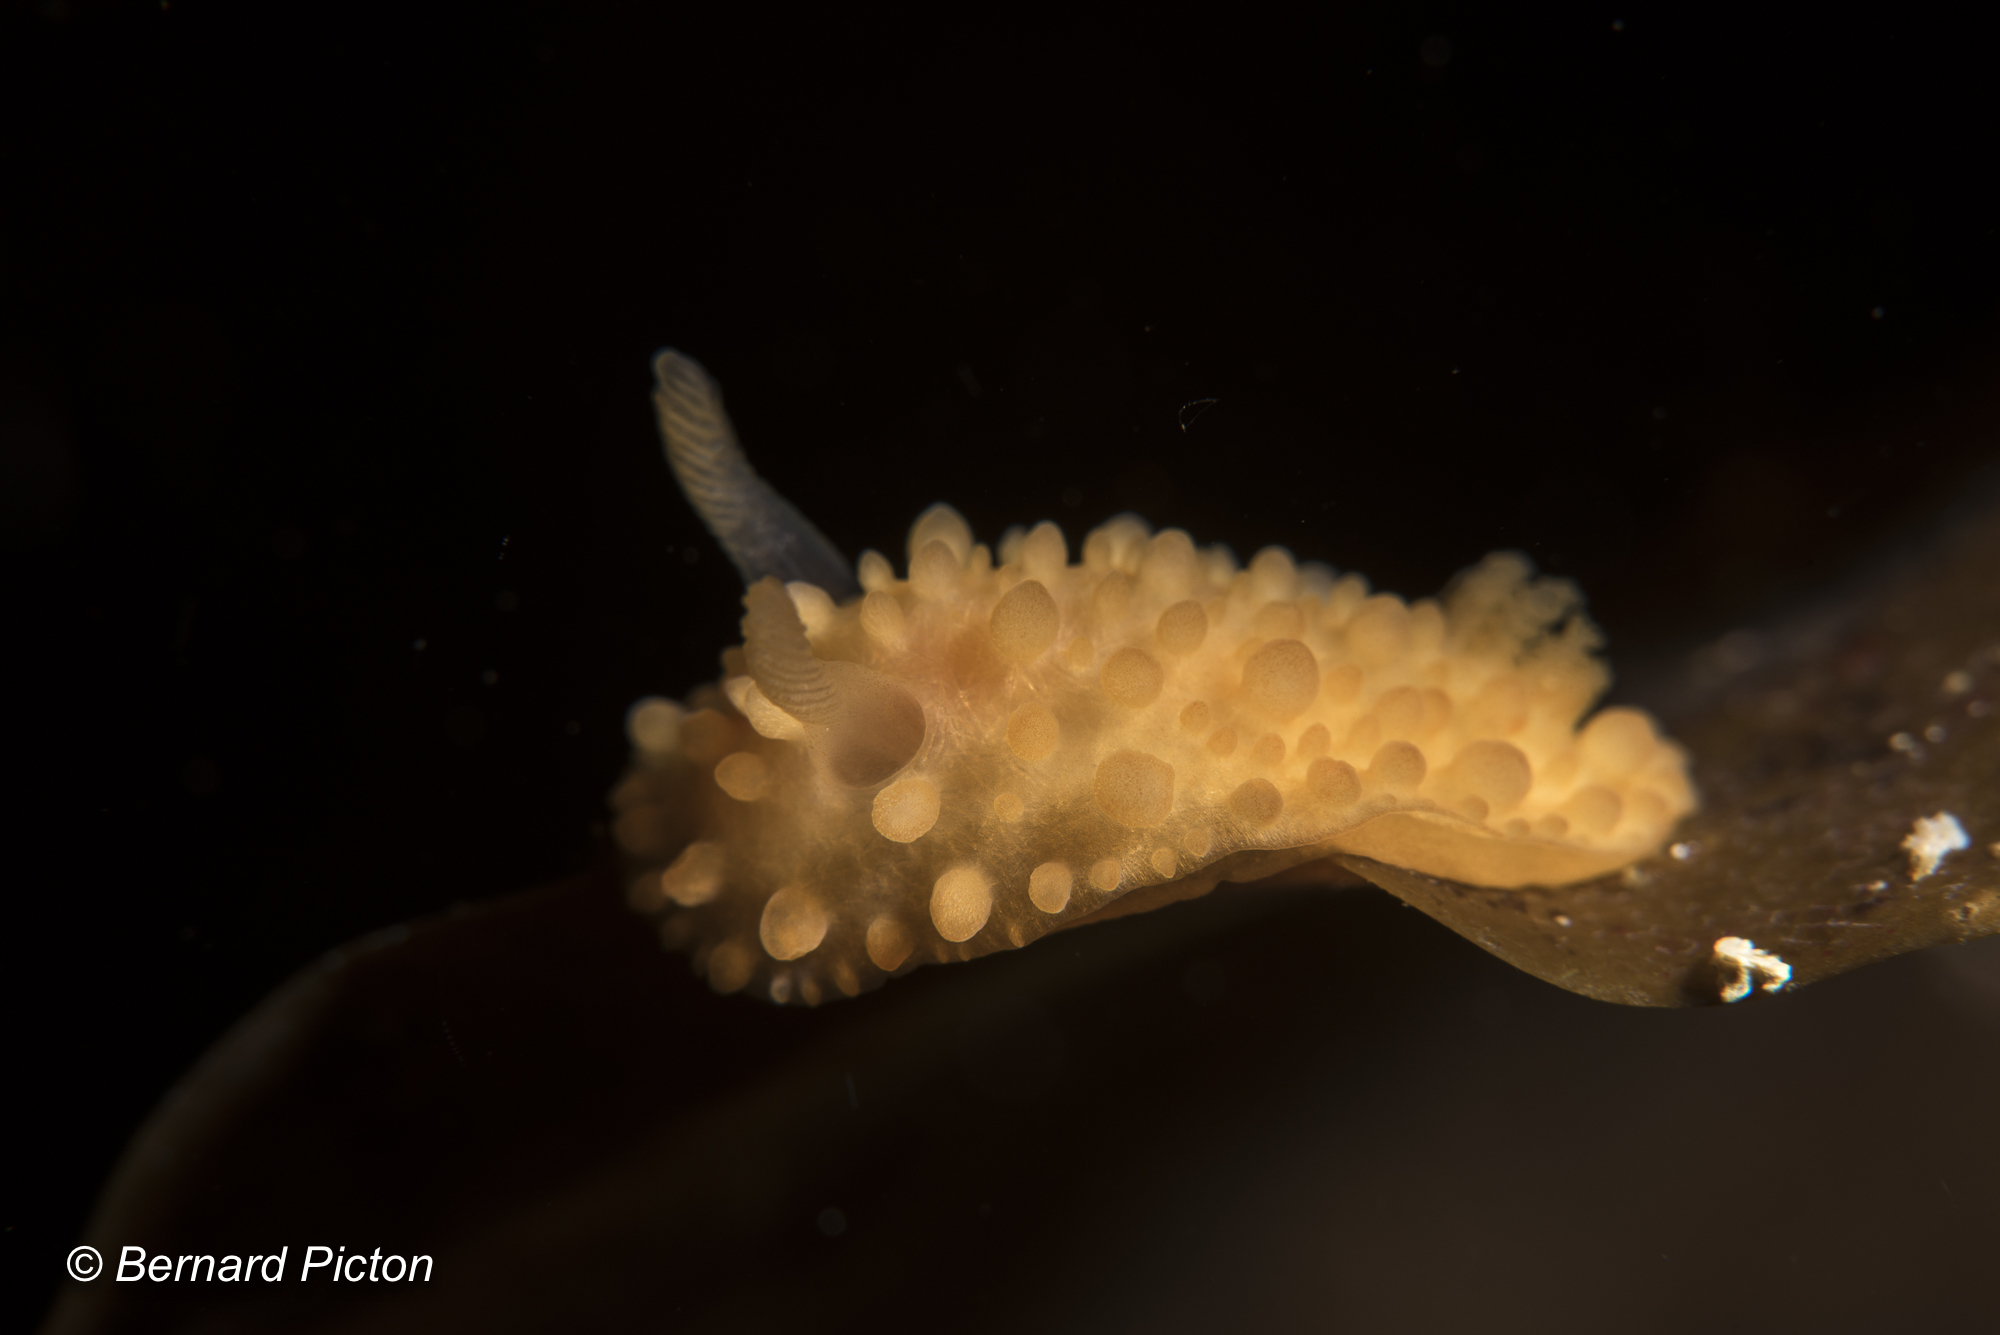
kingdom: Animalia
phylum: Mollusca
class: Gastropoda
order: Nudibranchia
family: Onchidorididae
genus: Adalaria
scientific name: Adalaria loveni
